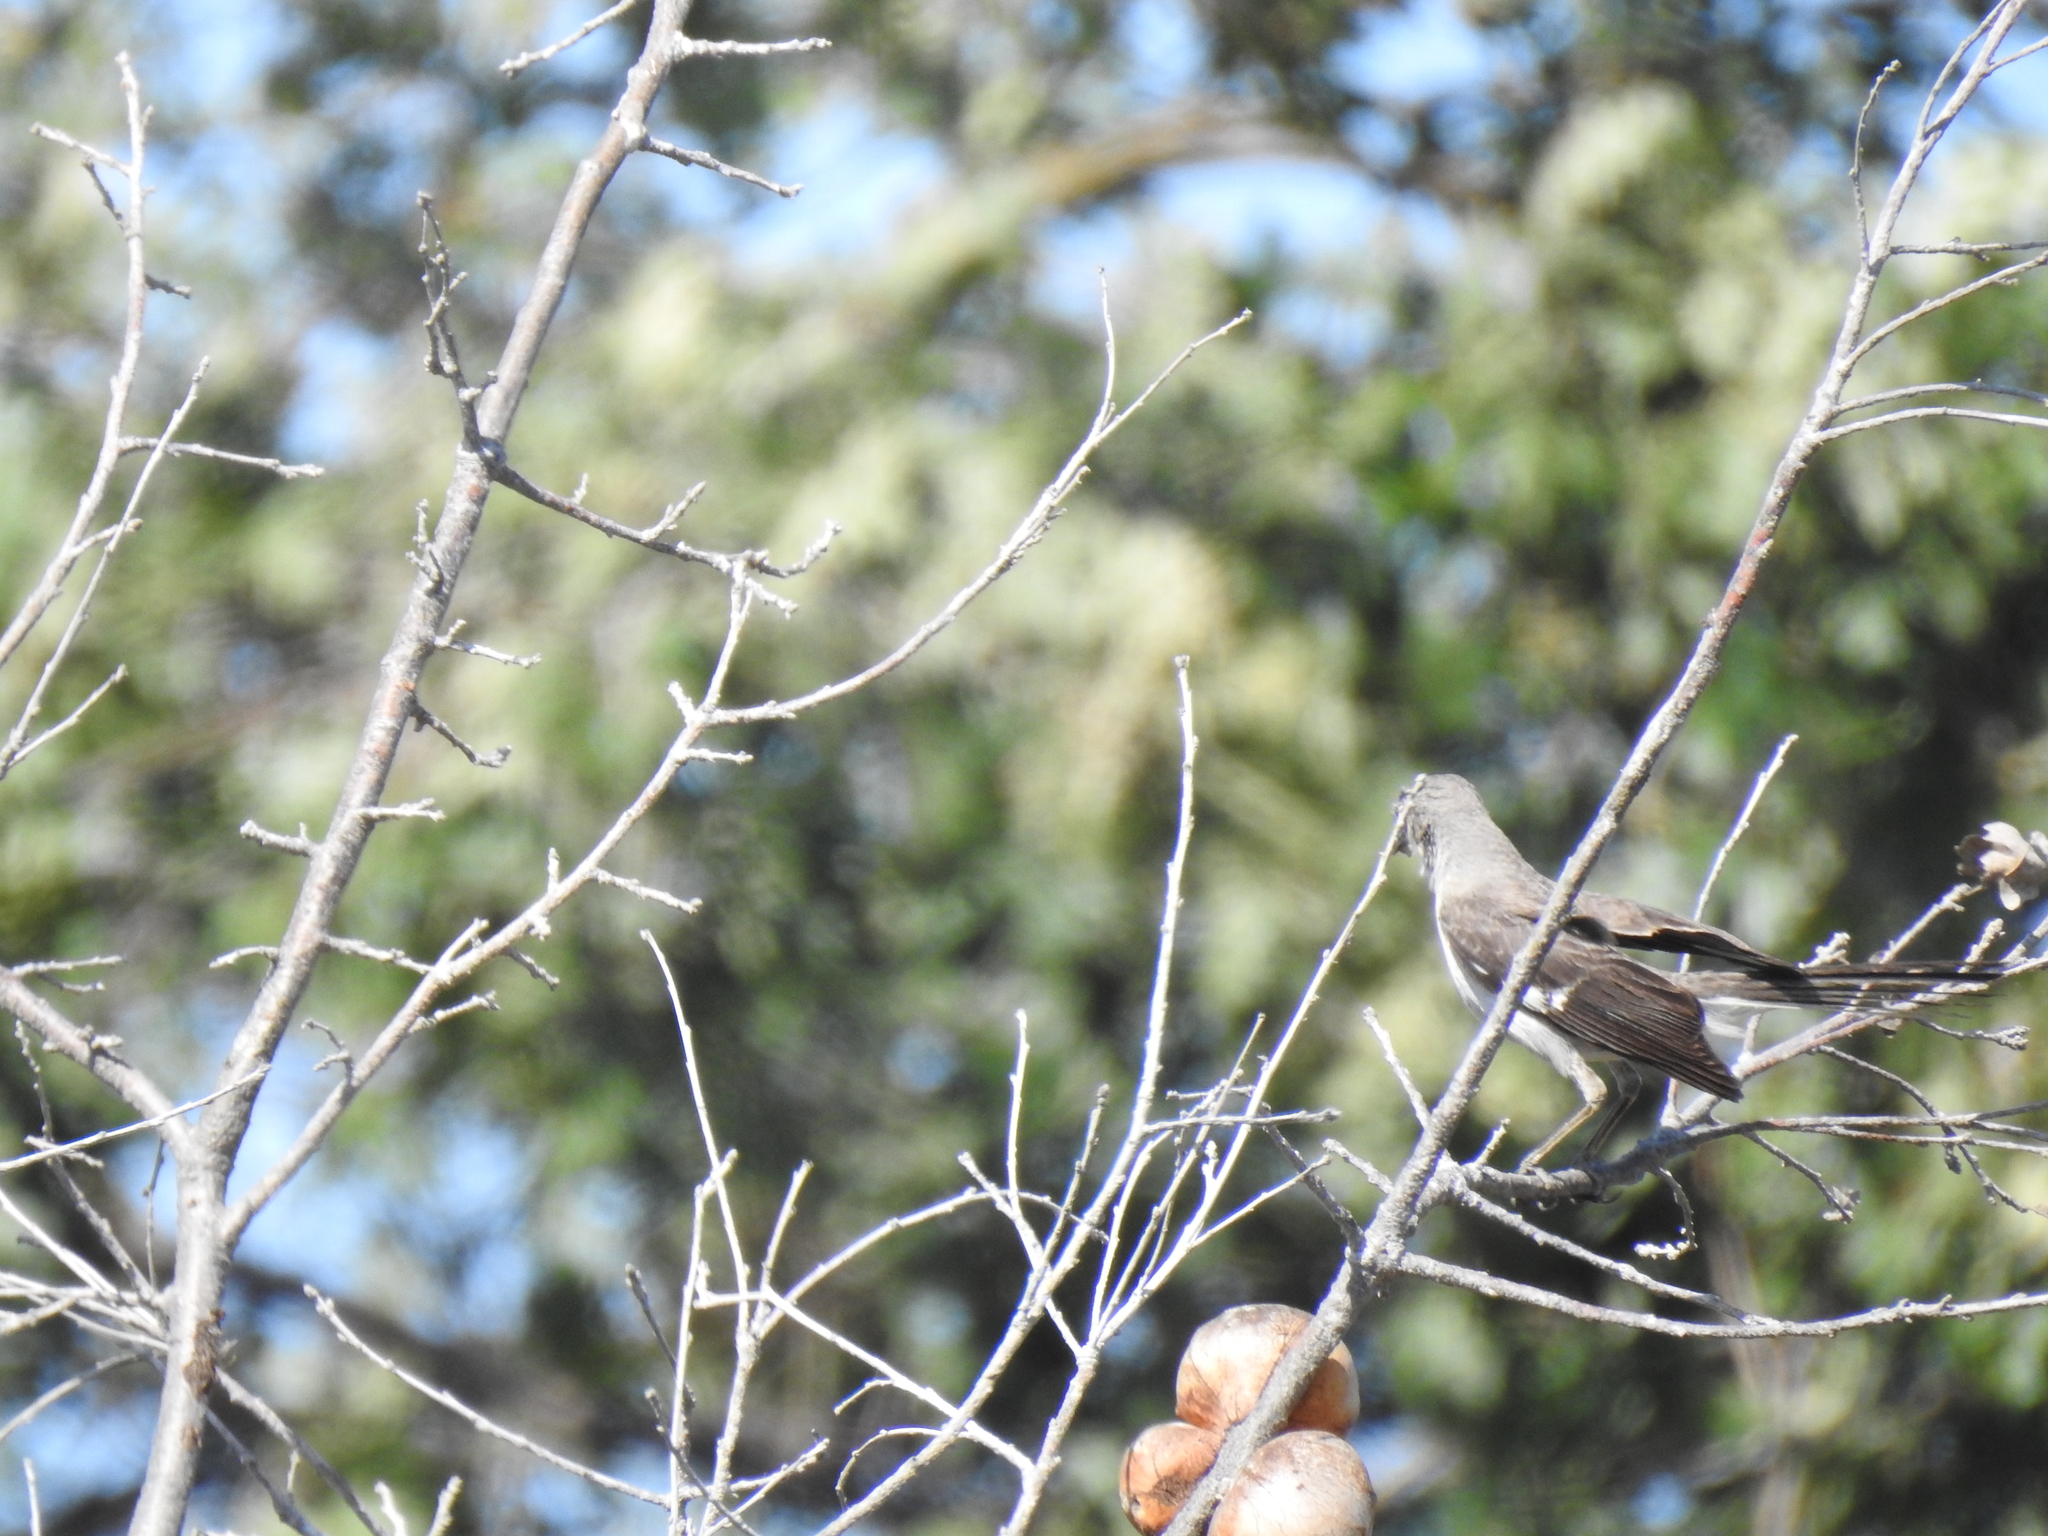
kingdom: Animalia
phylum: Chordata
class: Aves
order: Passeriformes
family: Mimidae
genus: Mimus
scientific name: Mimus polyglottos
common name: Northern mockingbird
